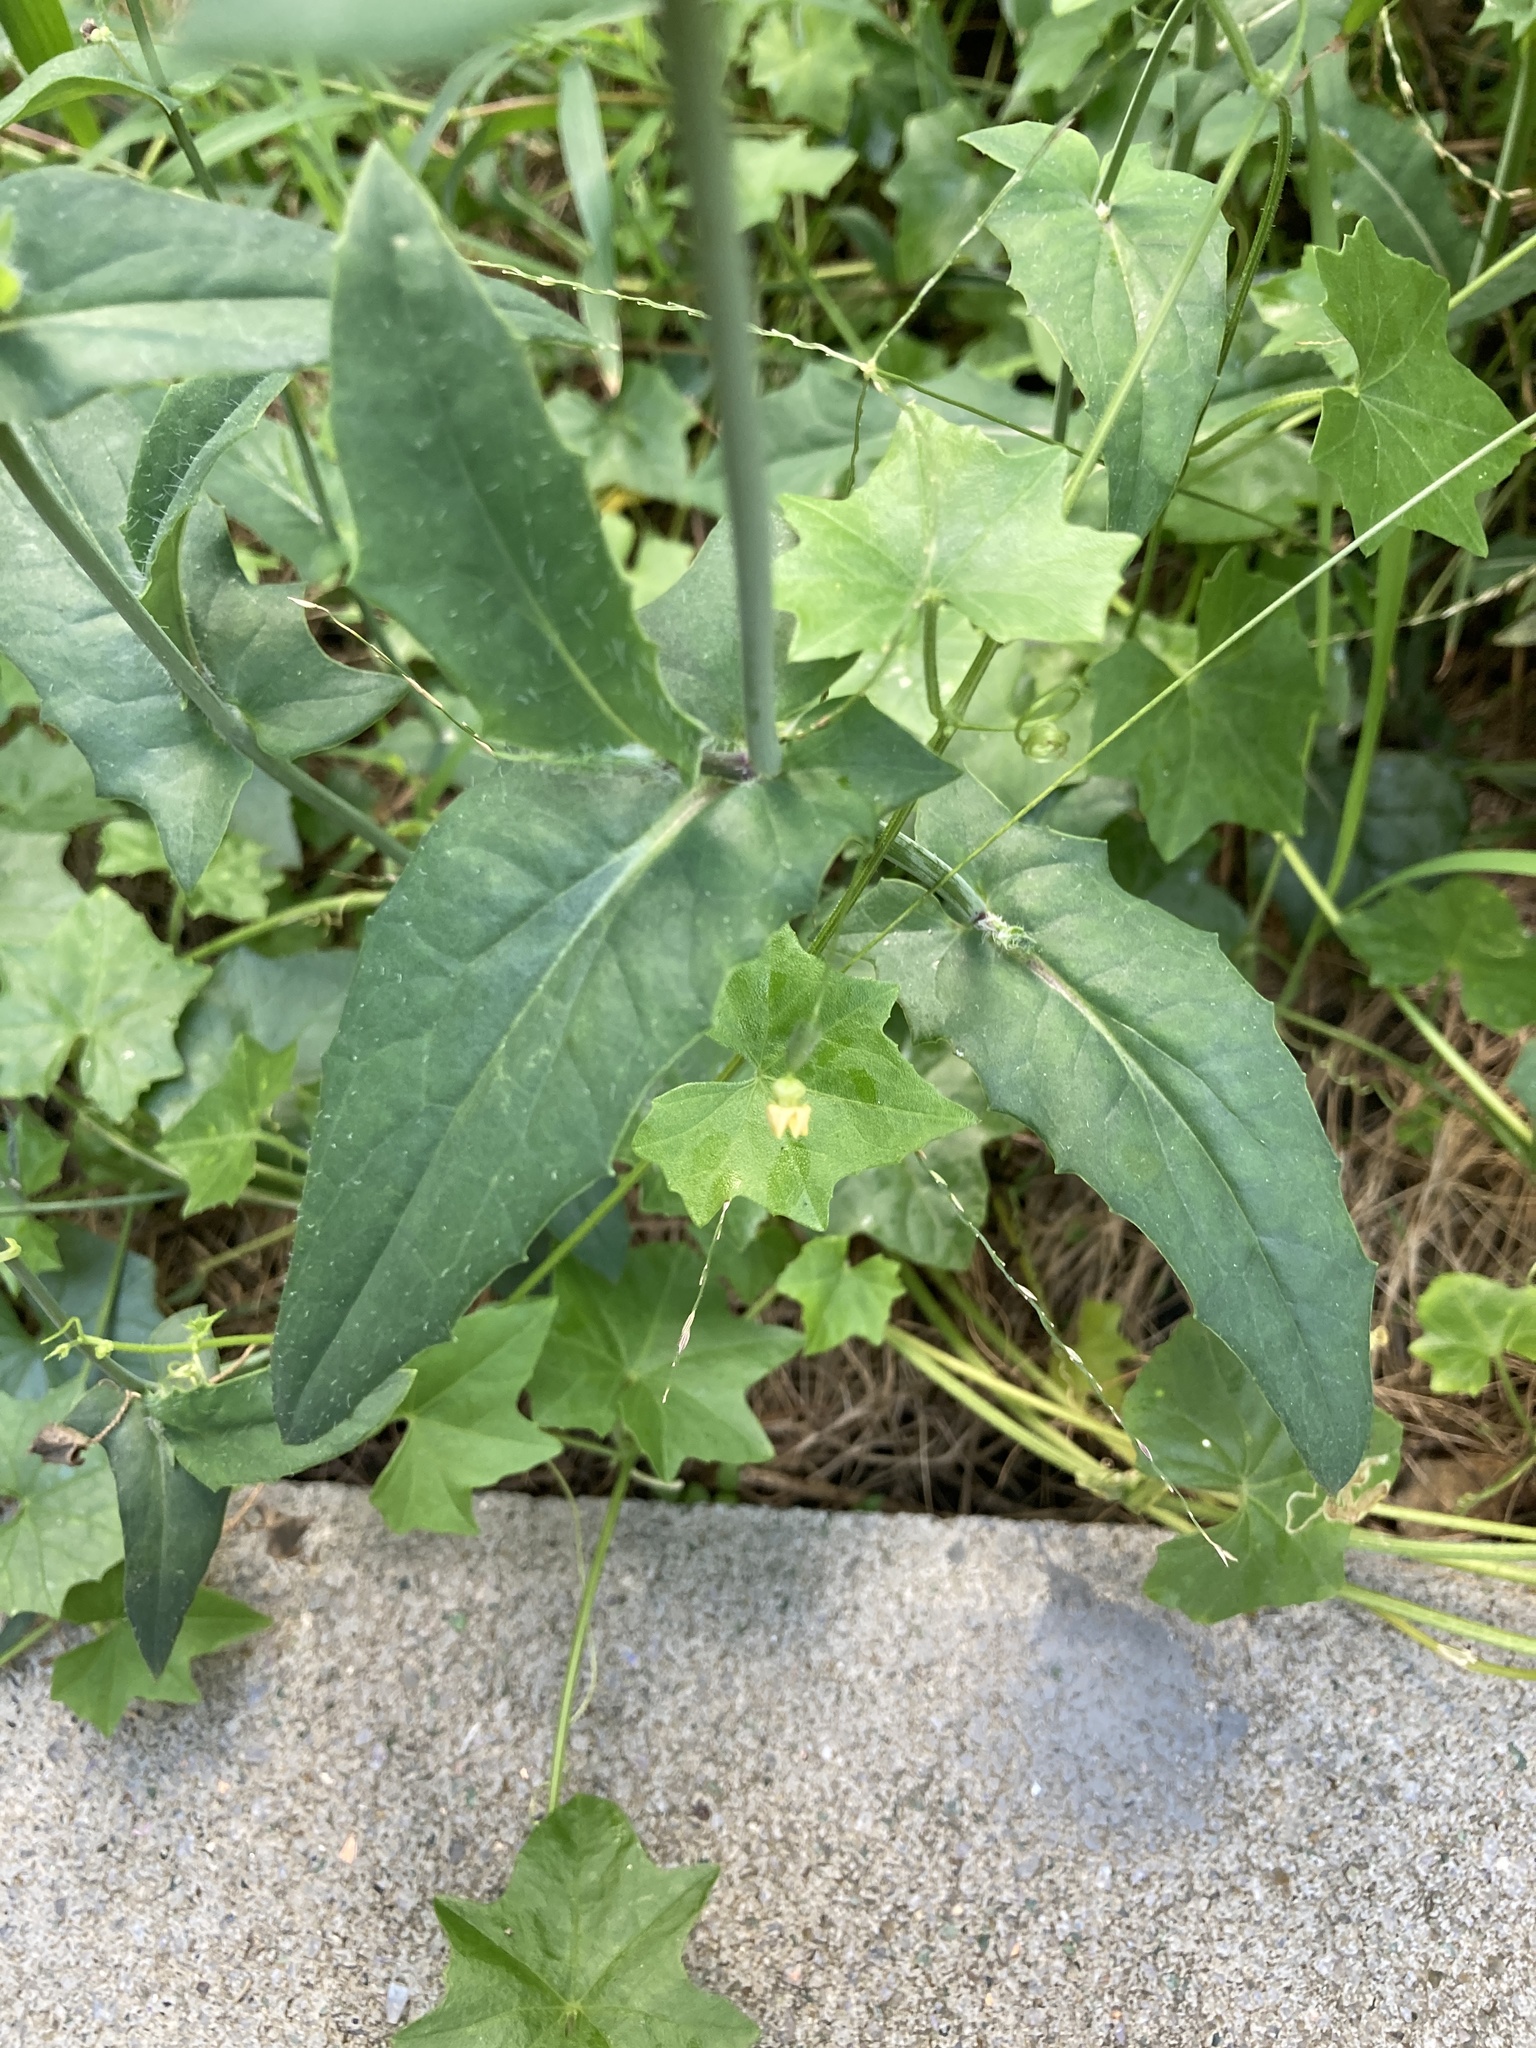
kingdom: Plantae
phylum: Tracheophyta
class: Magnoliopsida
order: Asterales
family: Asteraceae
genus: Emilia
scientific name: Emilia javanica
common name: Tassel-flower
